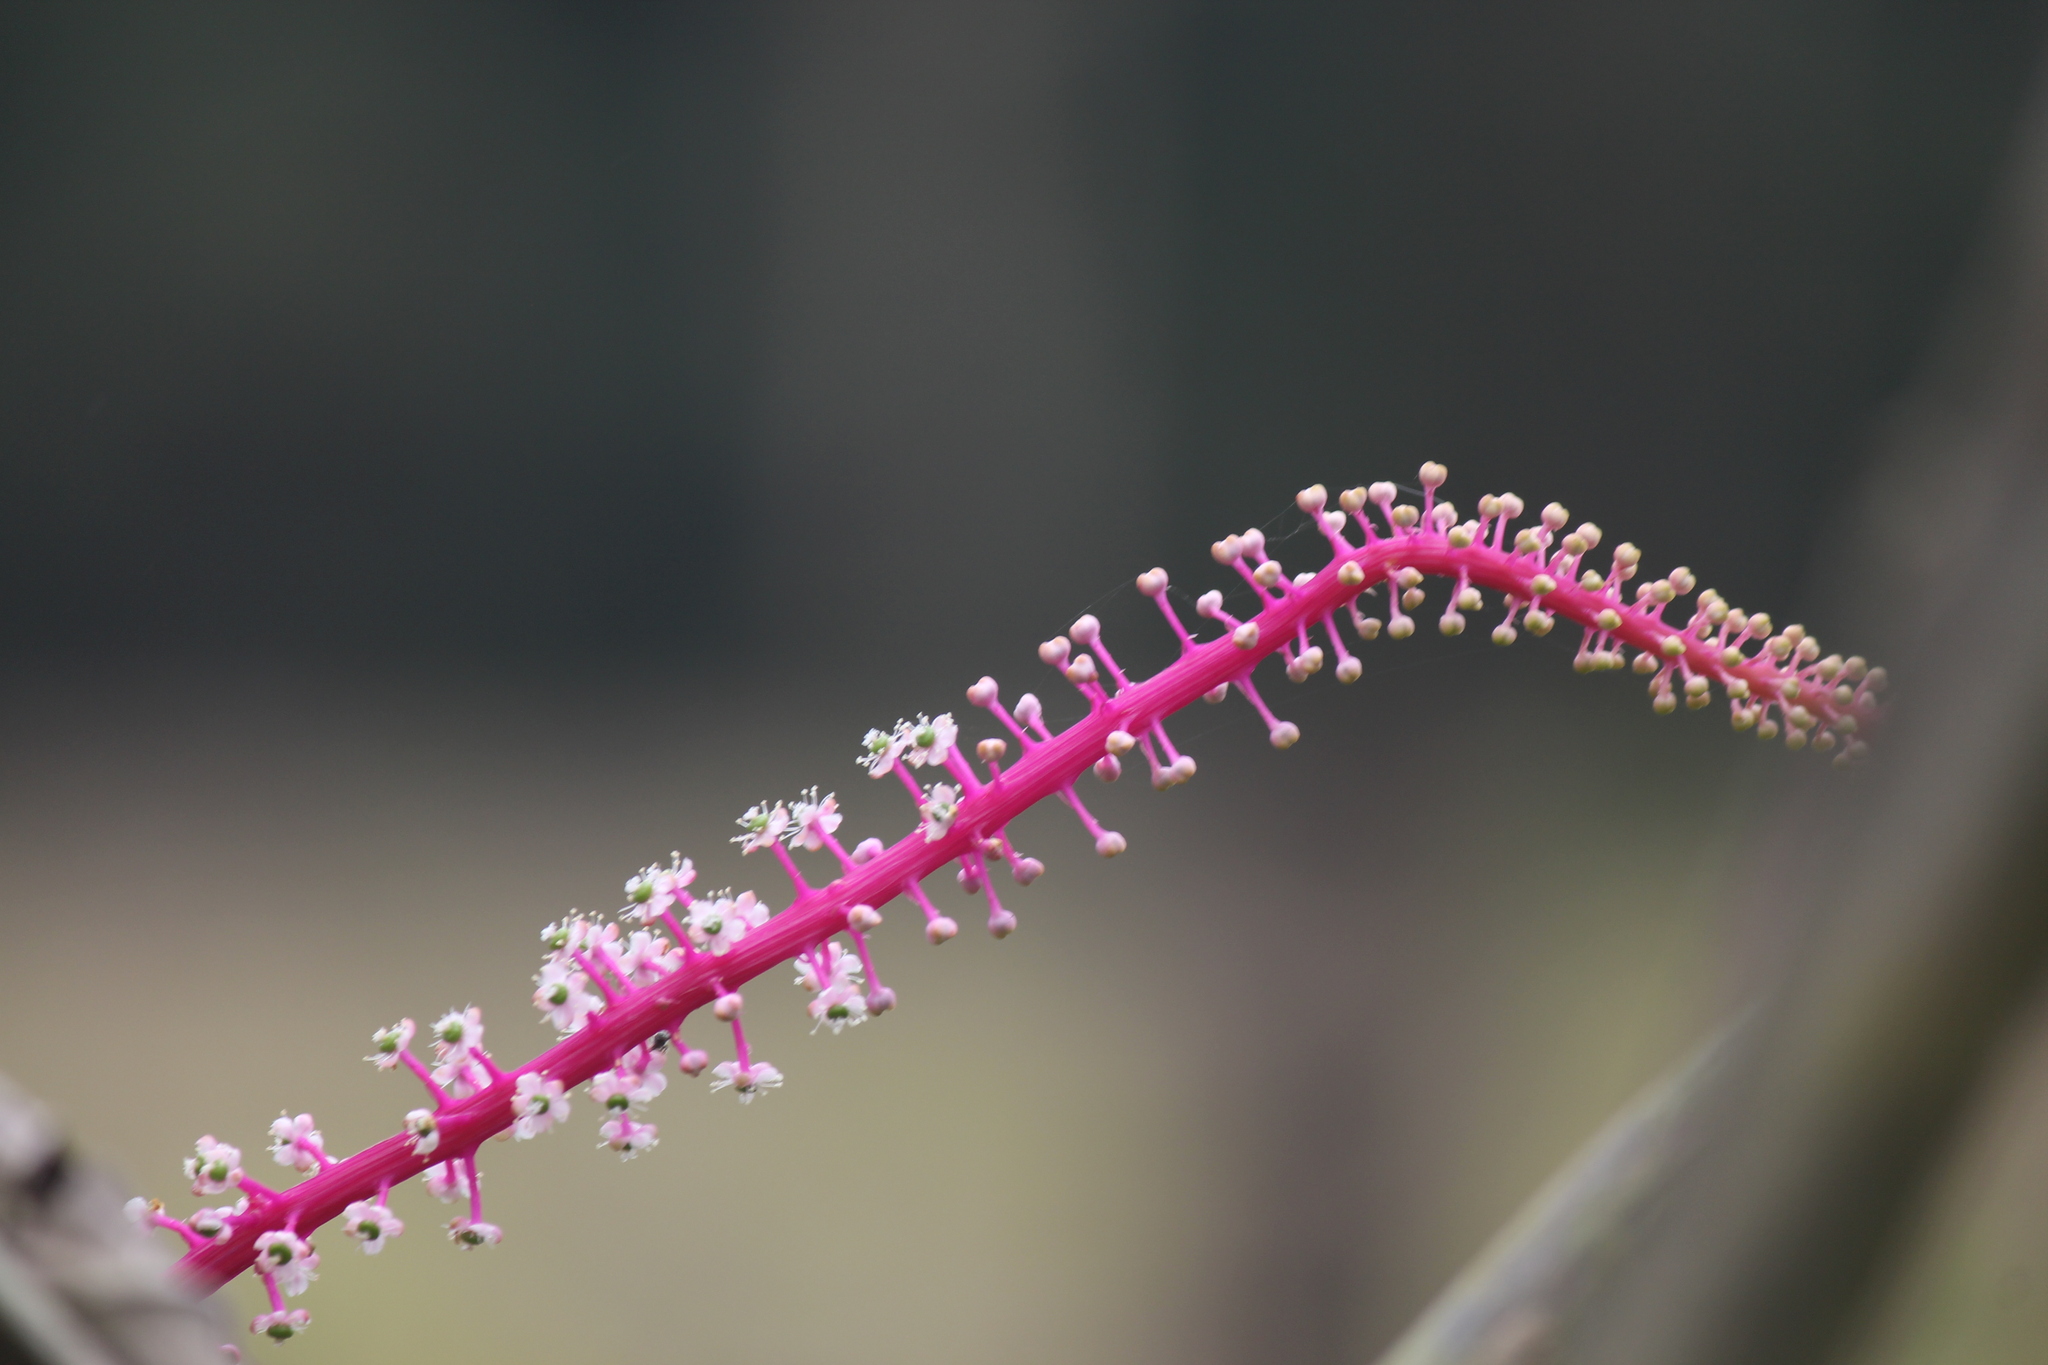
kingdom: Plantae
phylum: Tracheophyta
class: Magnoliopsida
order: Caryophyllales
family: Phytolaccaceae
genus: Phytolacca
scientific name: Phytolacca rivinoides
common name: Venezuelan pokeweed
